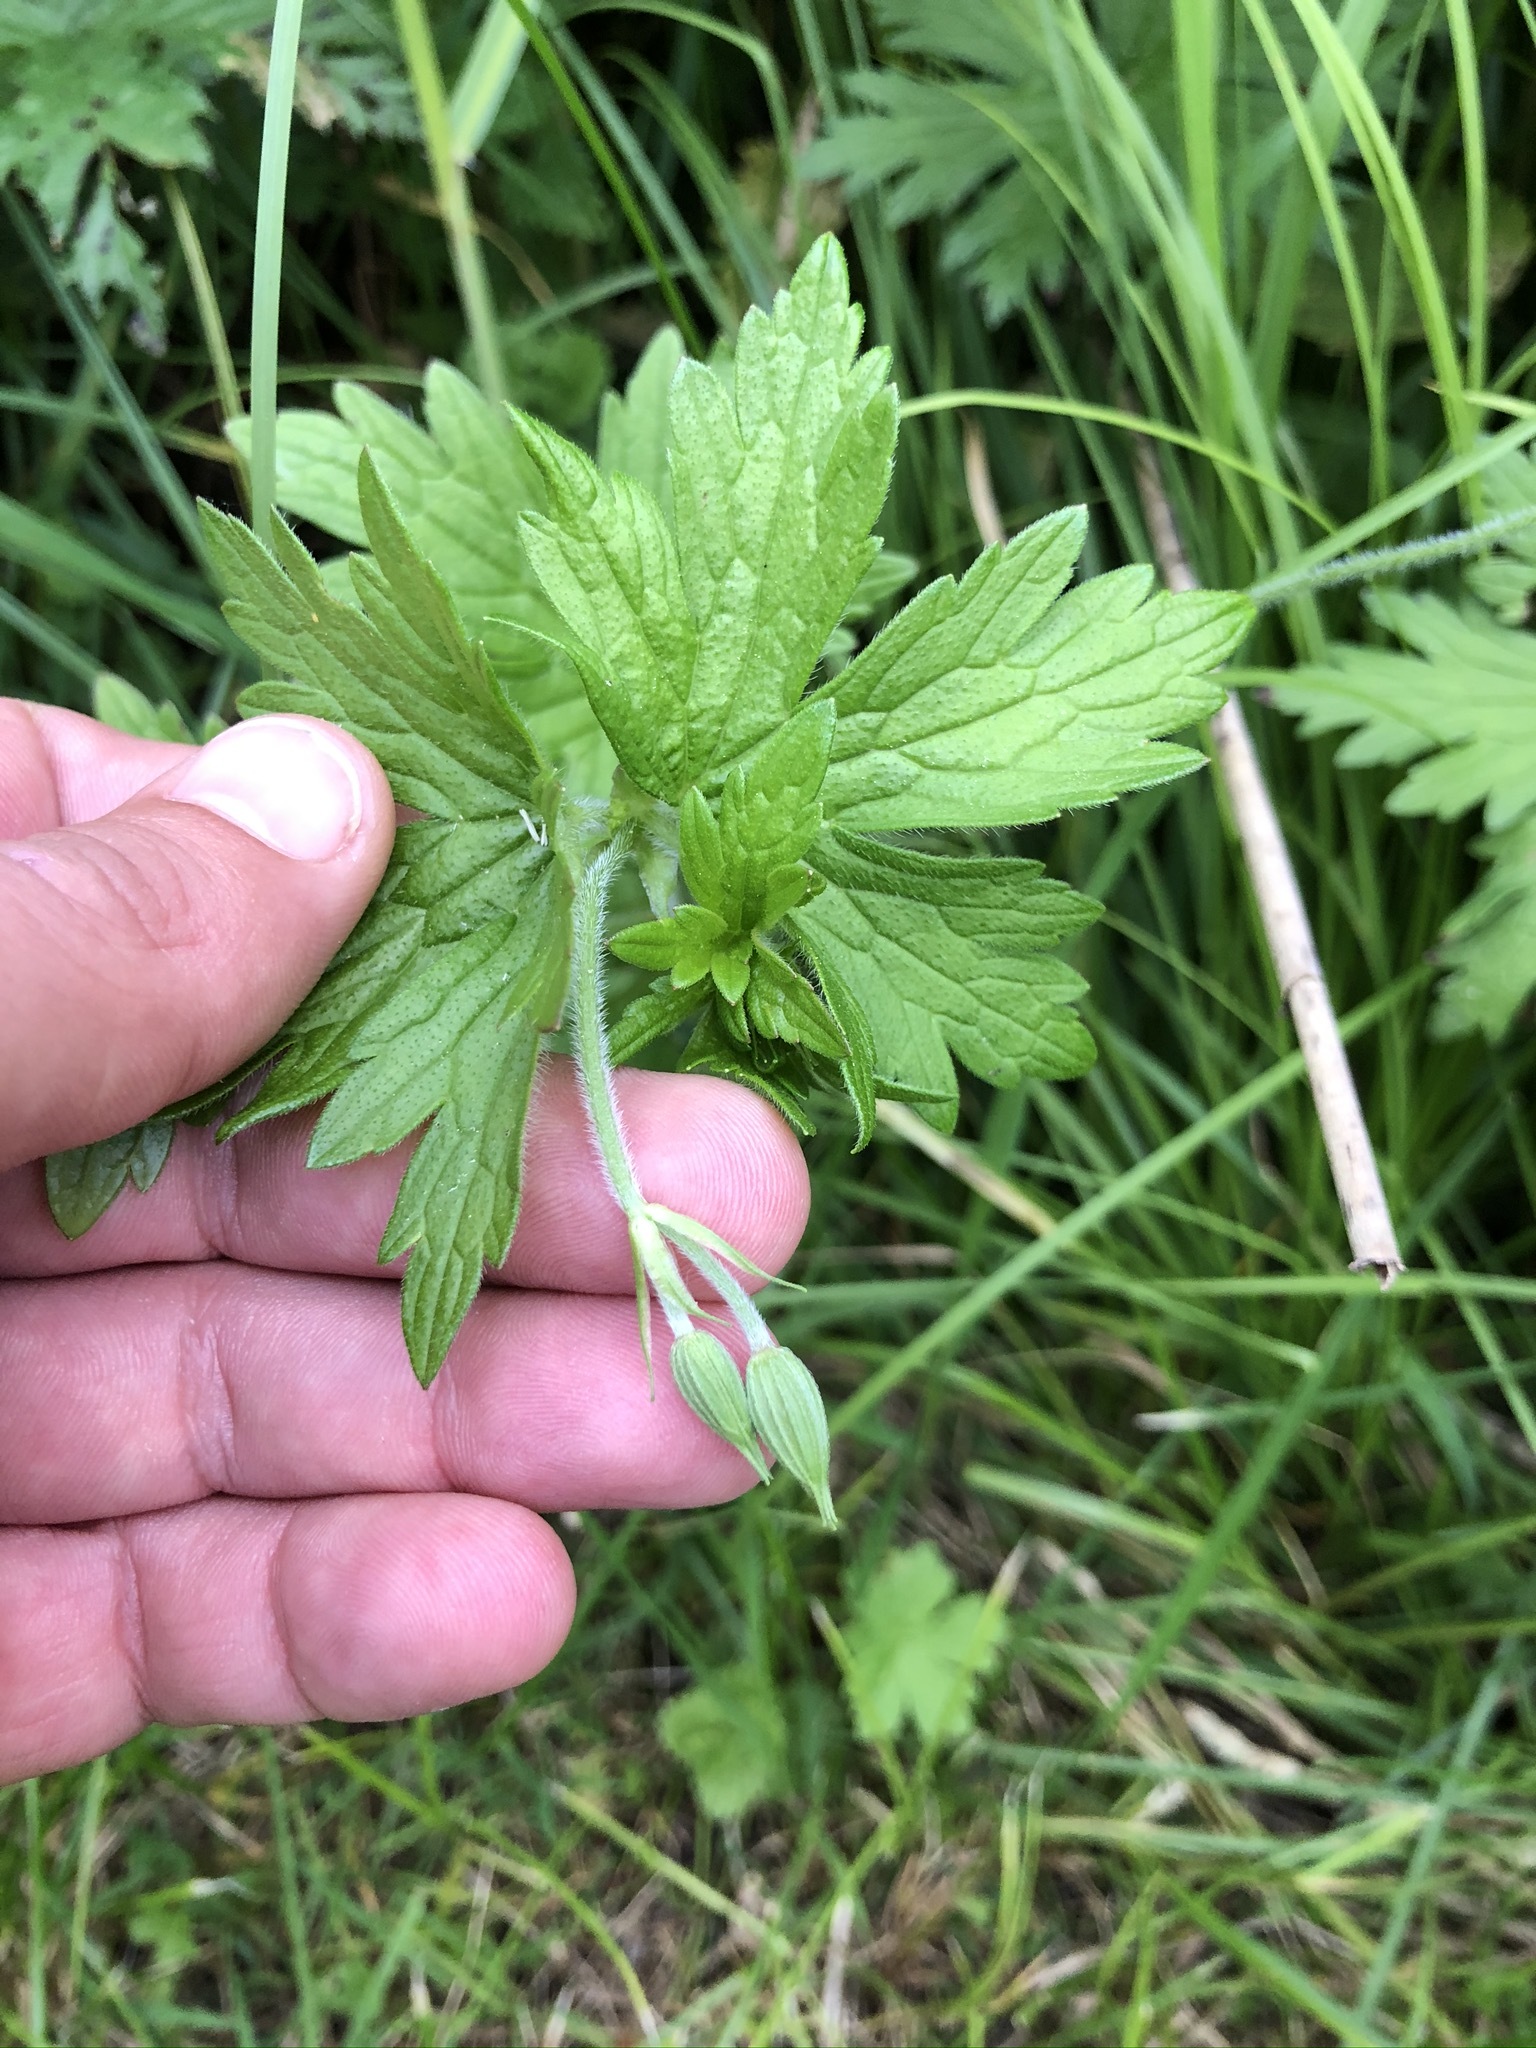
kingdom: Plantae
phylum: Tracheophyta
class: Magnoliopsida
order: Geraniales
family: Geraniaceae
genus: Geranium
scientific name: Geranium palustre
